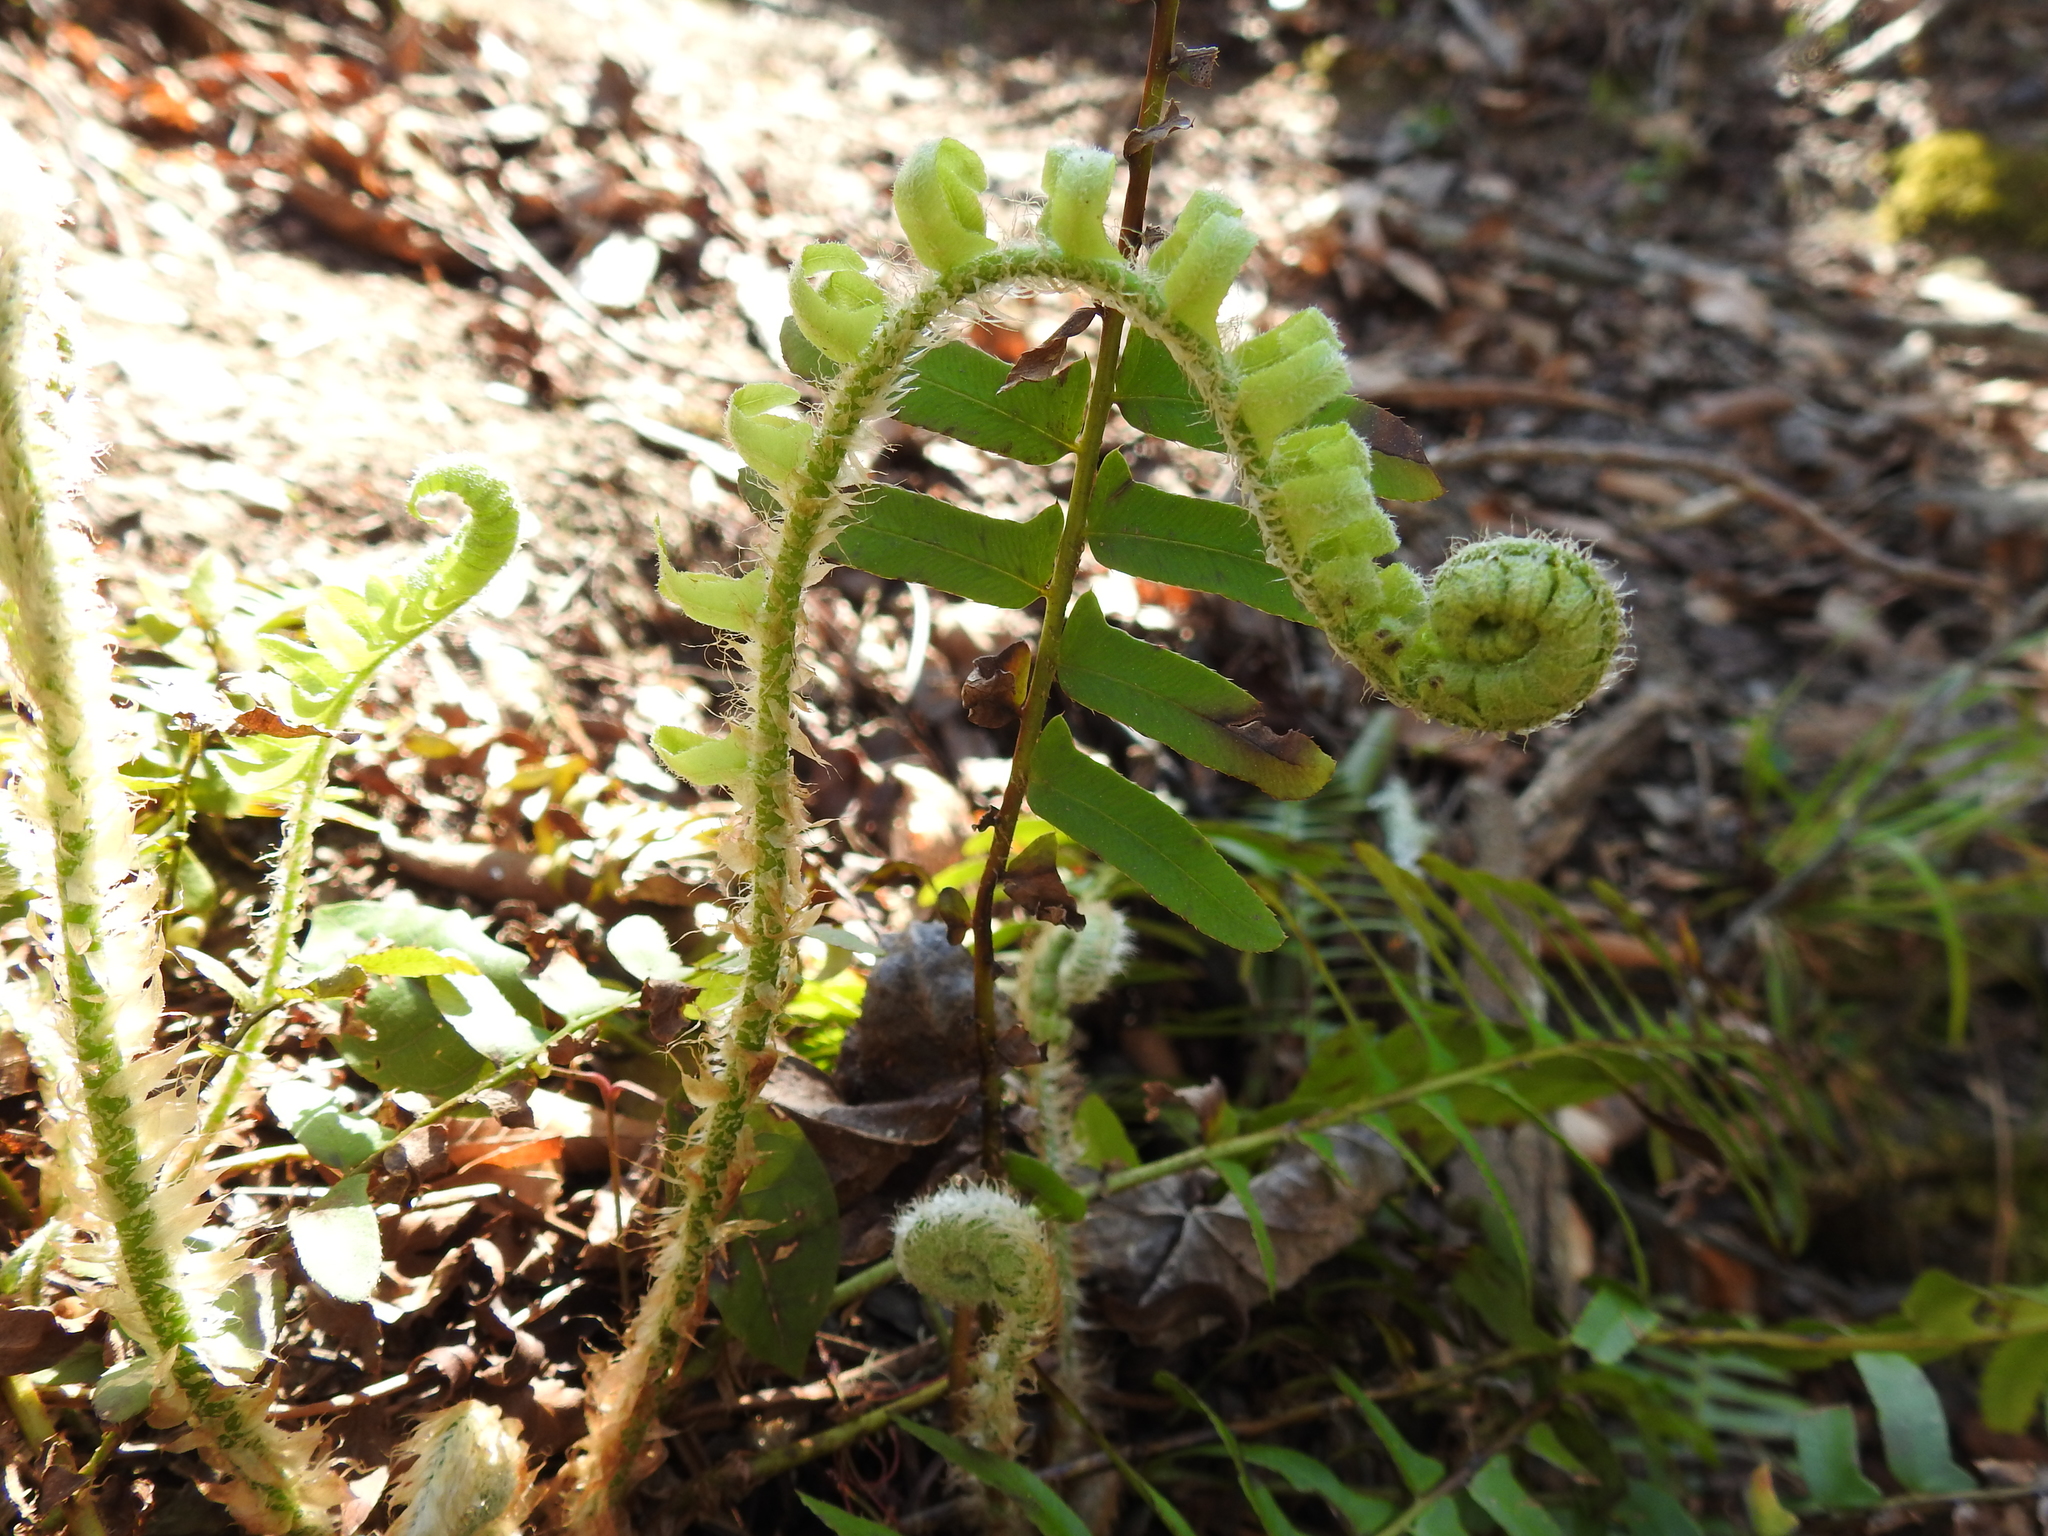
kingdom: Plantae
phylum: Tracheophyta
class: Polypodiopsida
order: Polypodiales
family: Dryopteridaceae
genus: Polystichum
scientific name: Polystichum acrostichoides
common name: Christmas fern
